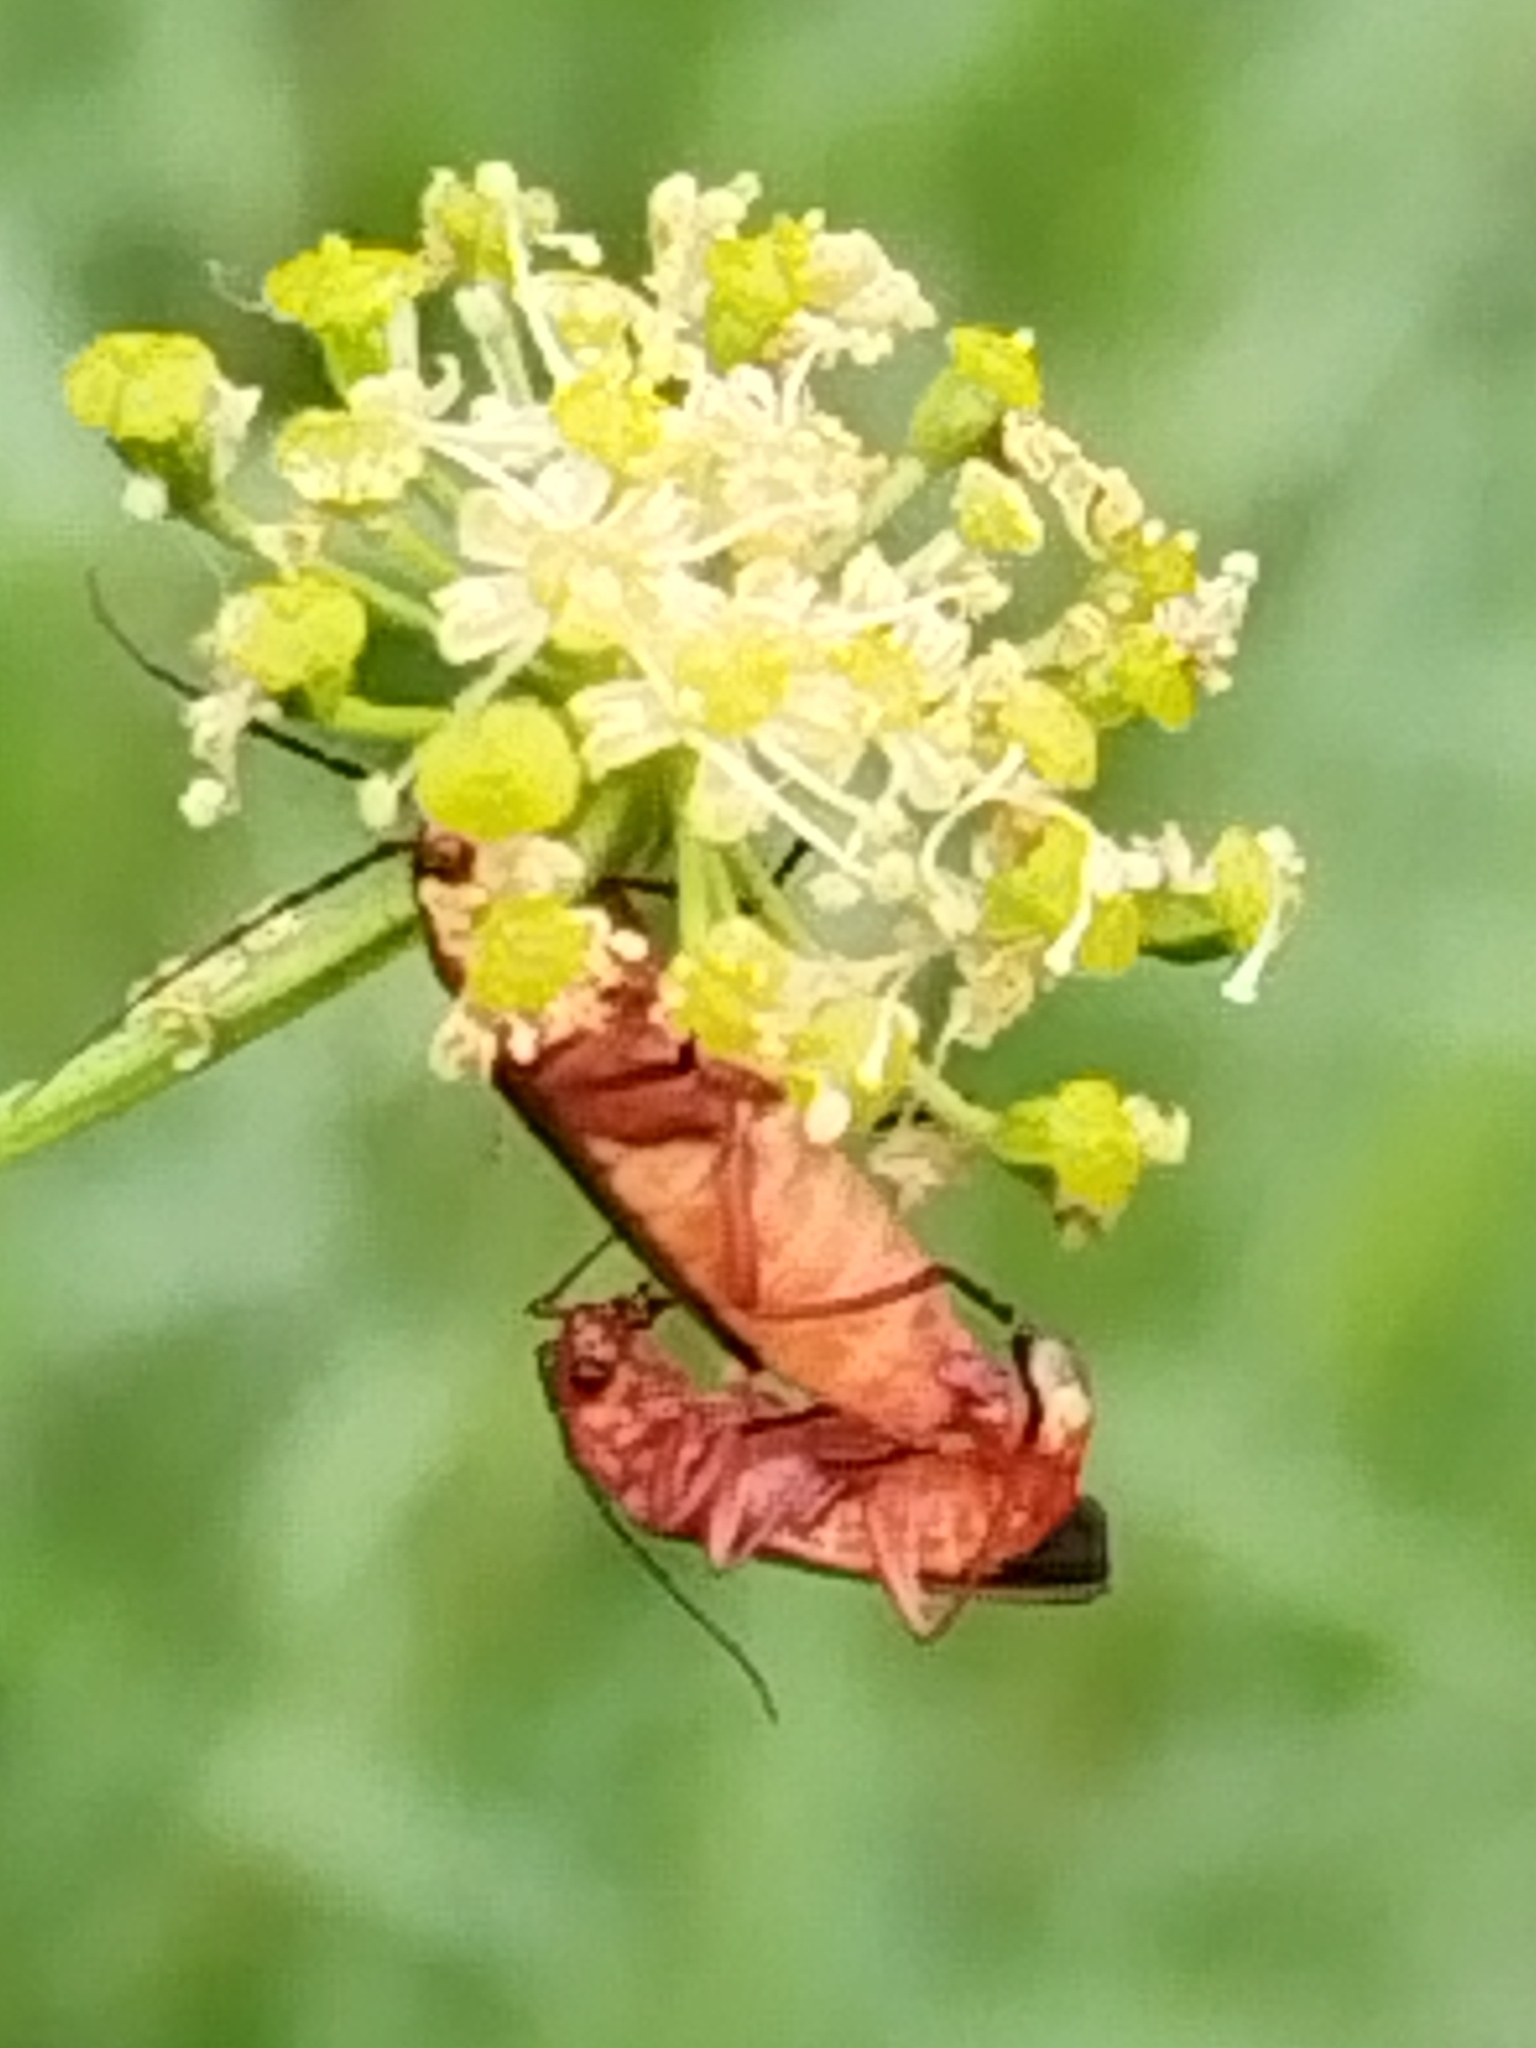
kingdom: Animalia
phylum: Arthropoda
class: Insecta
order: Coleoptera
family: Cantharidae
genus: Rhagonycha
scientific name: Rhagonycha fulva
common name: Common red soldier beetle
